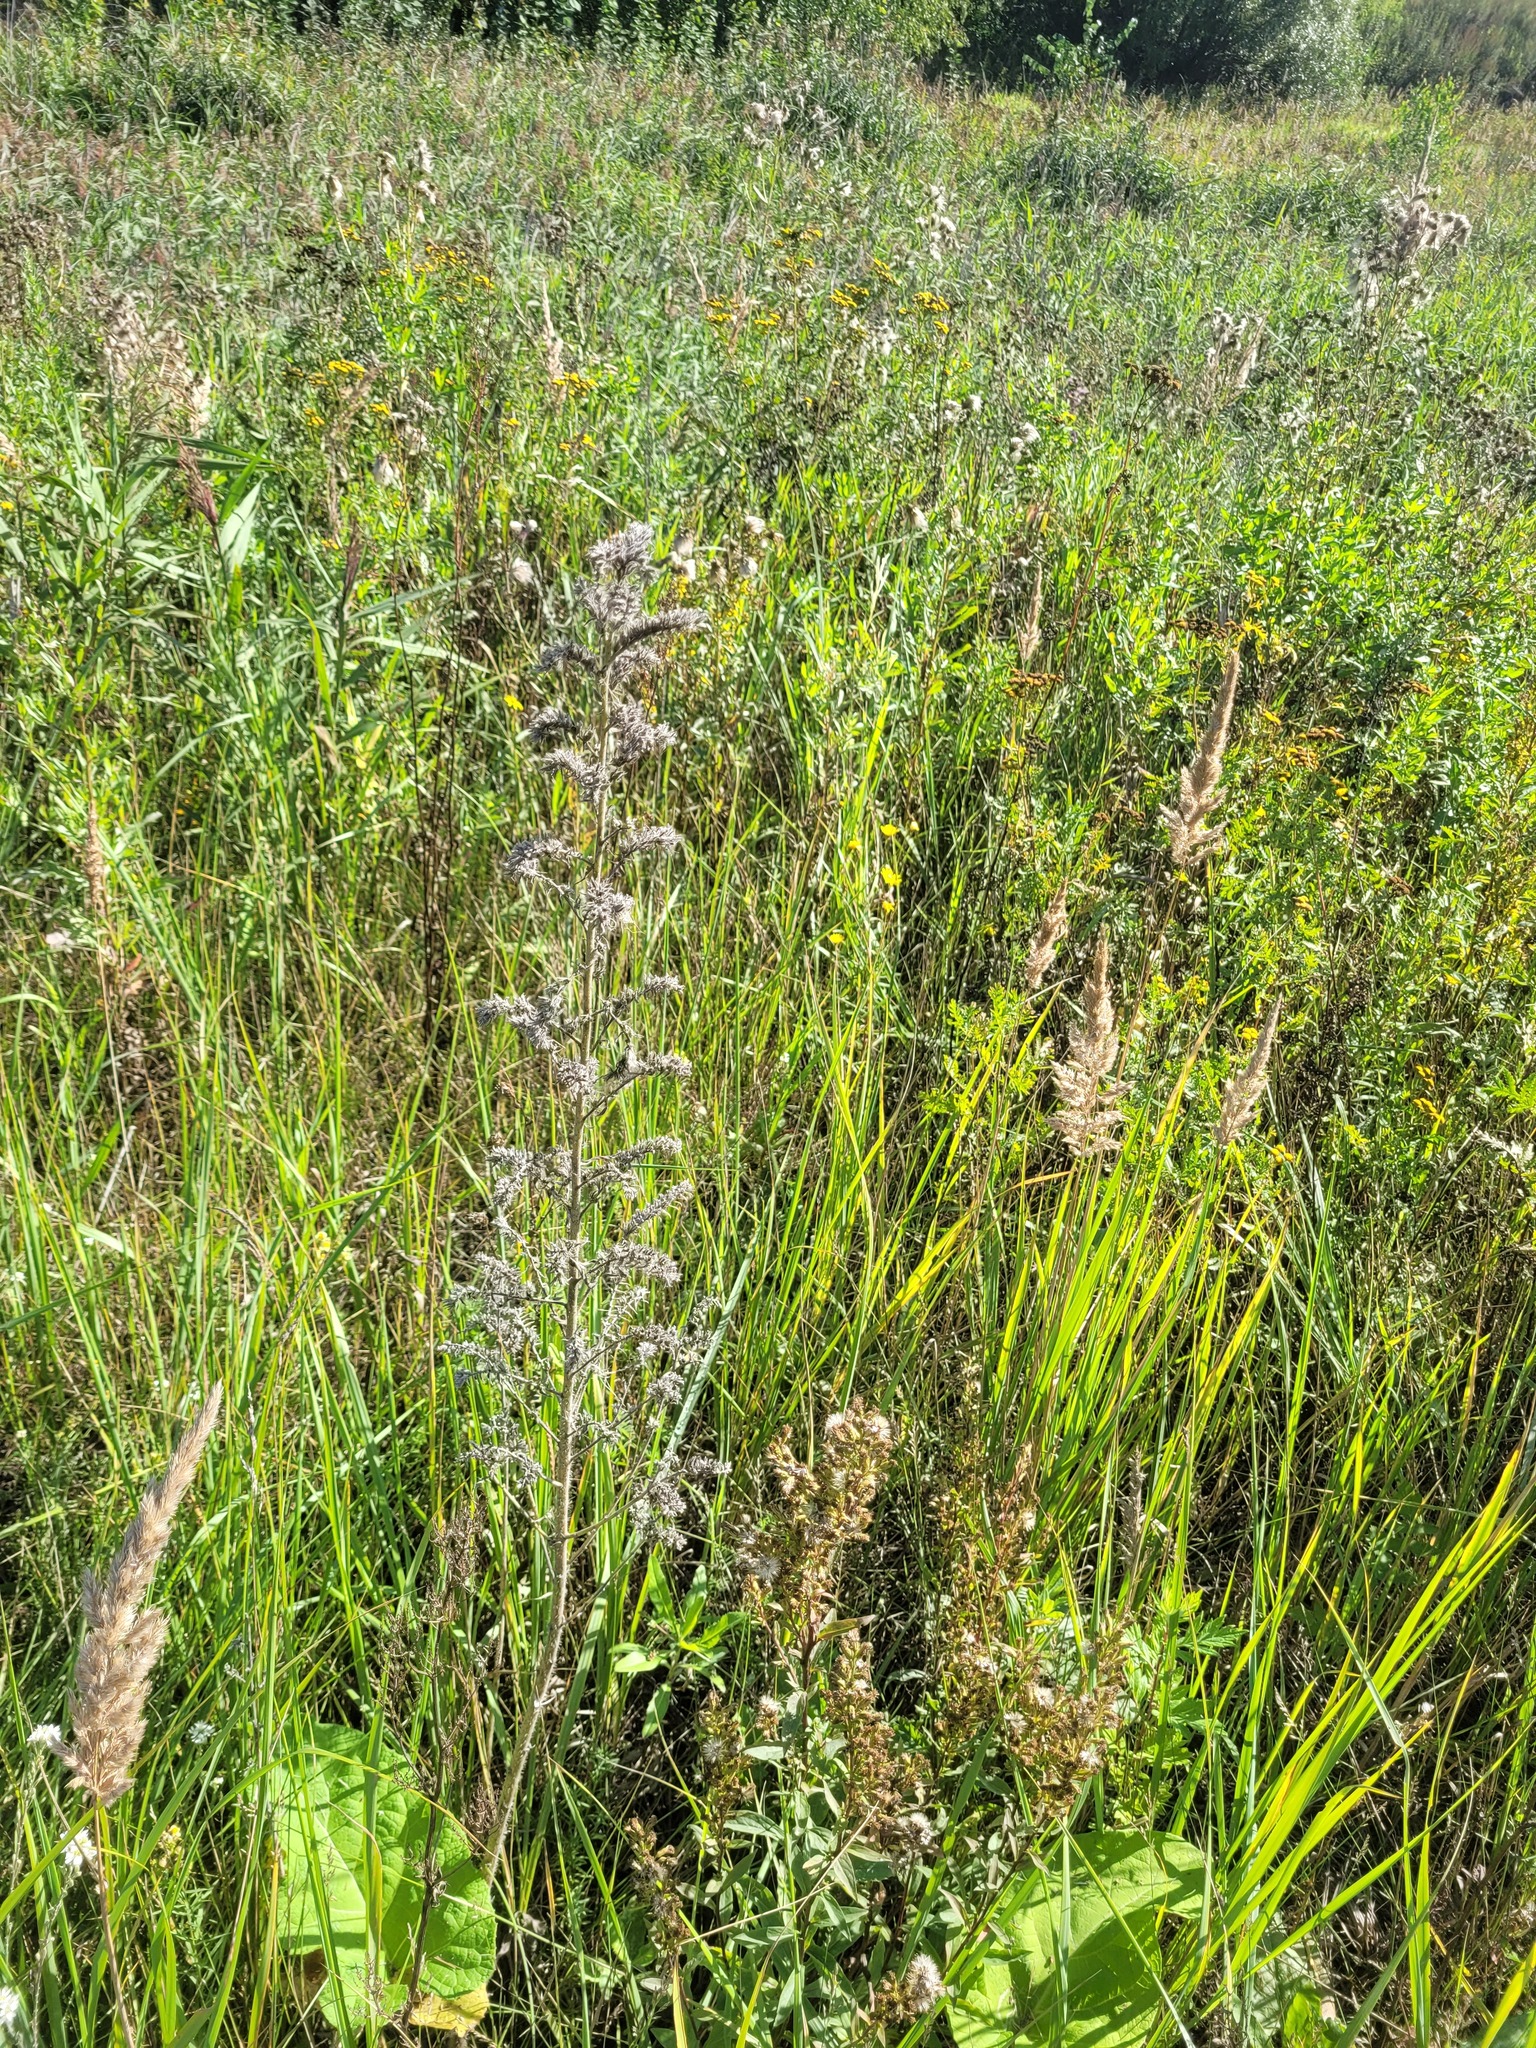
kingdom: Plantae
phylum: Tracheophyta
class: Magnoliopsida
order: Boraginales
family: Boraginaceae
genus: Echium
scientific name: Echium vulgare
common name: Common viper's bugloss
